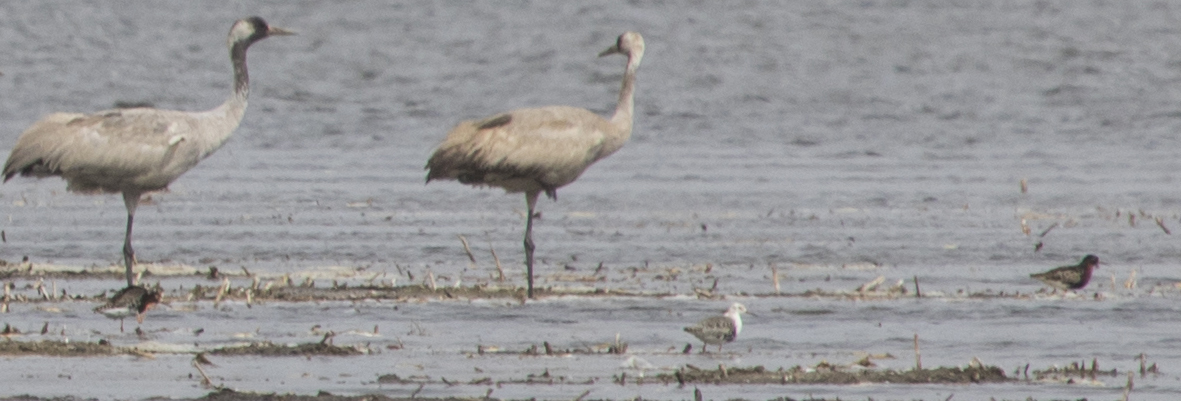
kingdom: Animalia
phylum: Chordata
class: Aves
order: Charadriiformes
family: Scolopacidae
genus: Calidris
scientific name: Calidris pugnax
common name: Ruff
